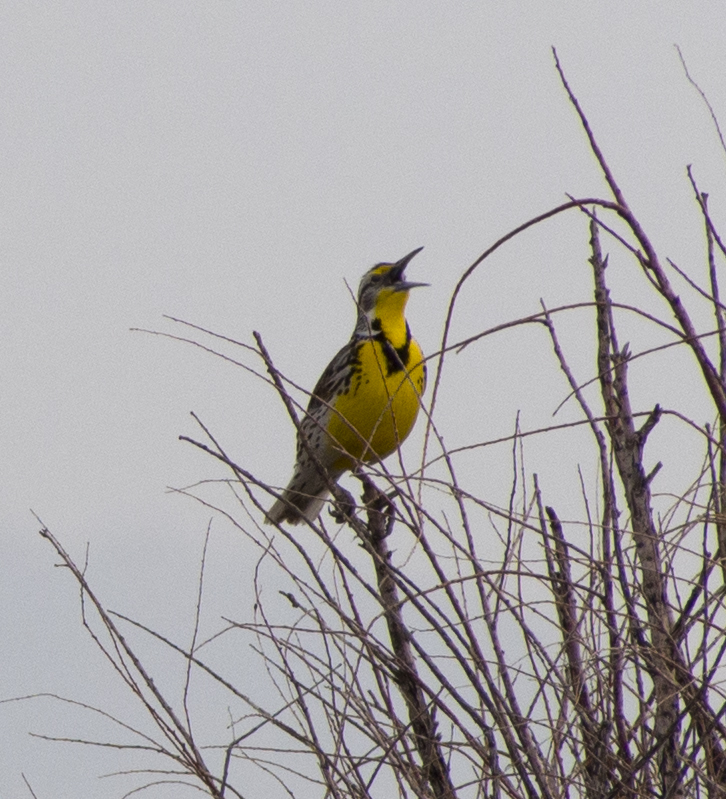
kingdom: Animalia
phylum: Chordata
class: Aves
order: Passeriformes
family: Icteridae
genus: Sturnella
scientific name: Sturnella neglecta
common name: Western meadowlark
